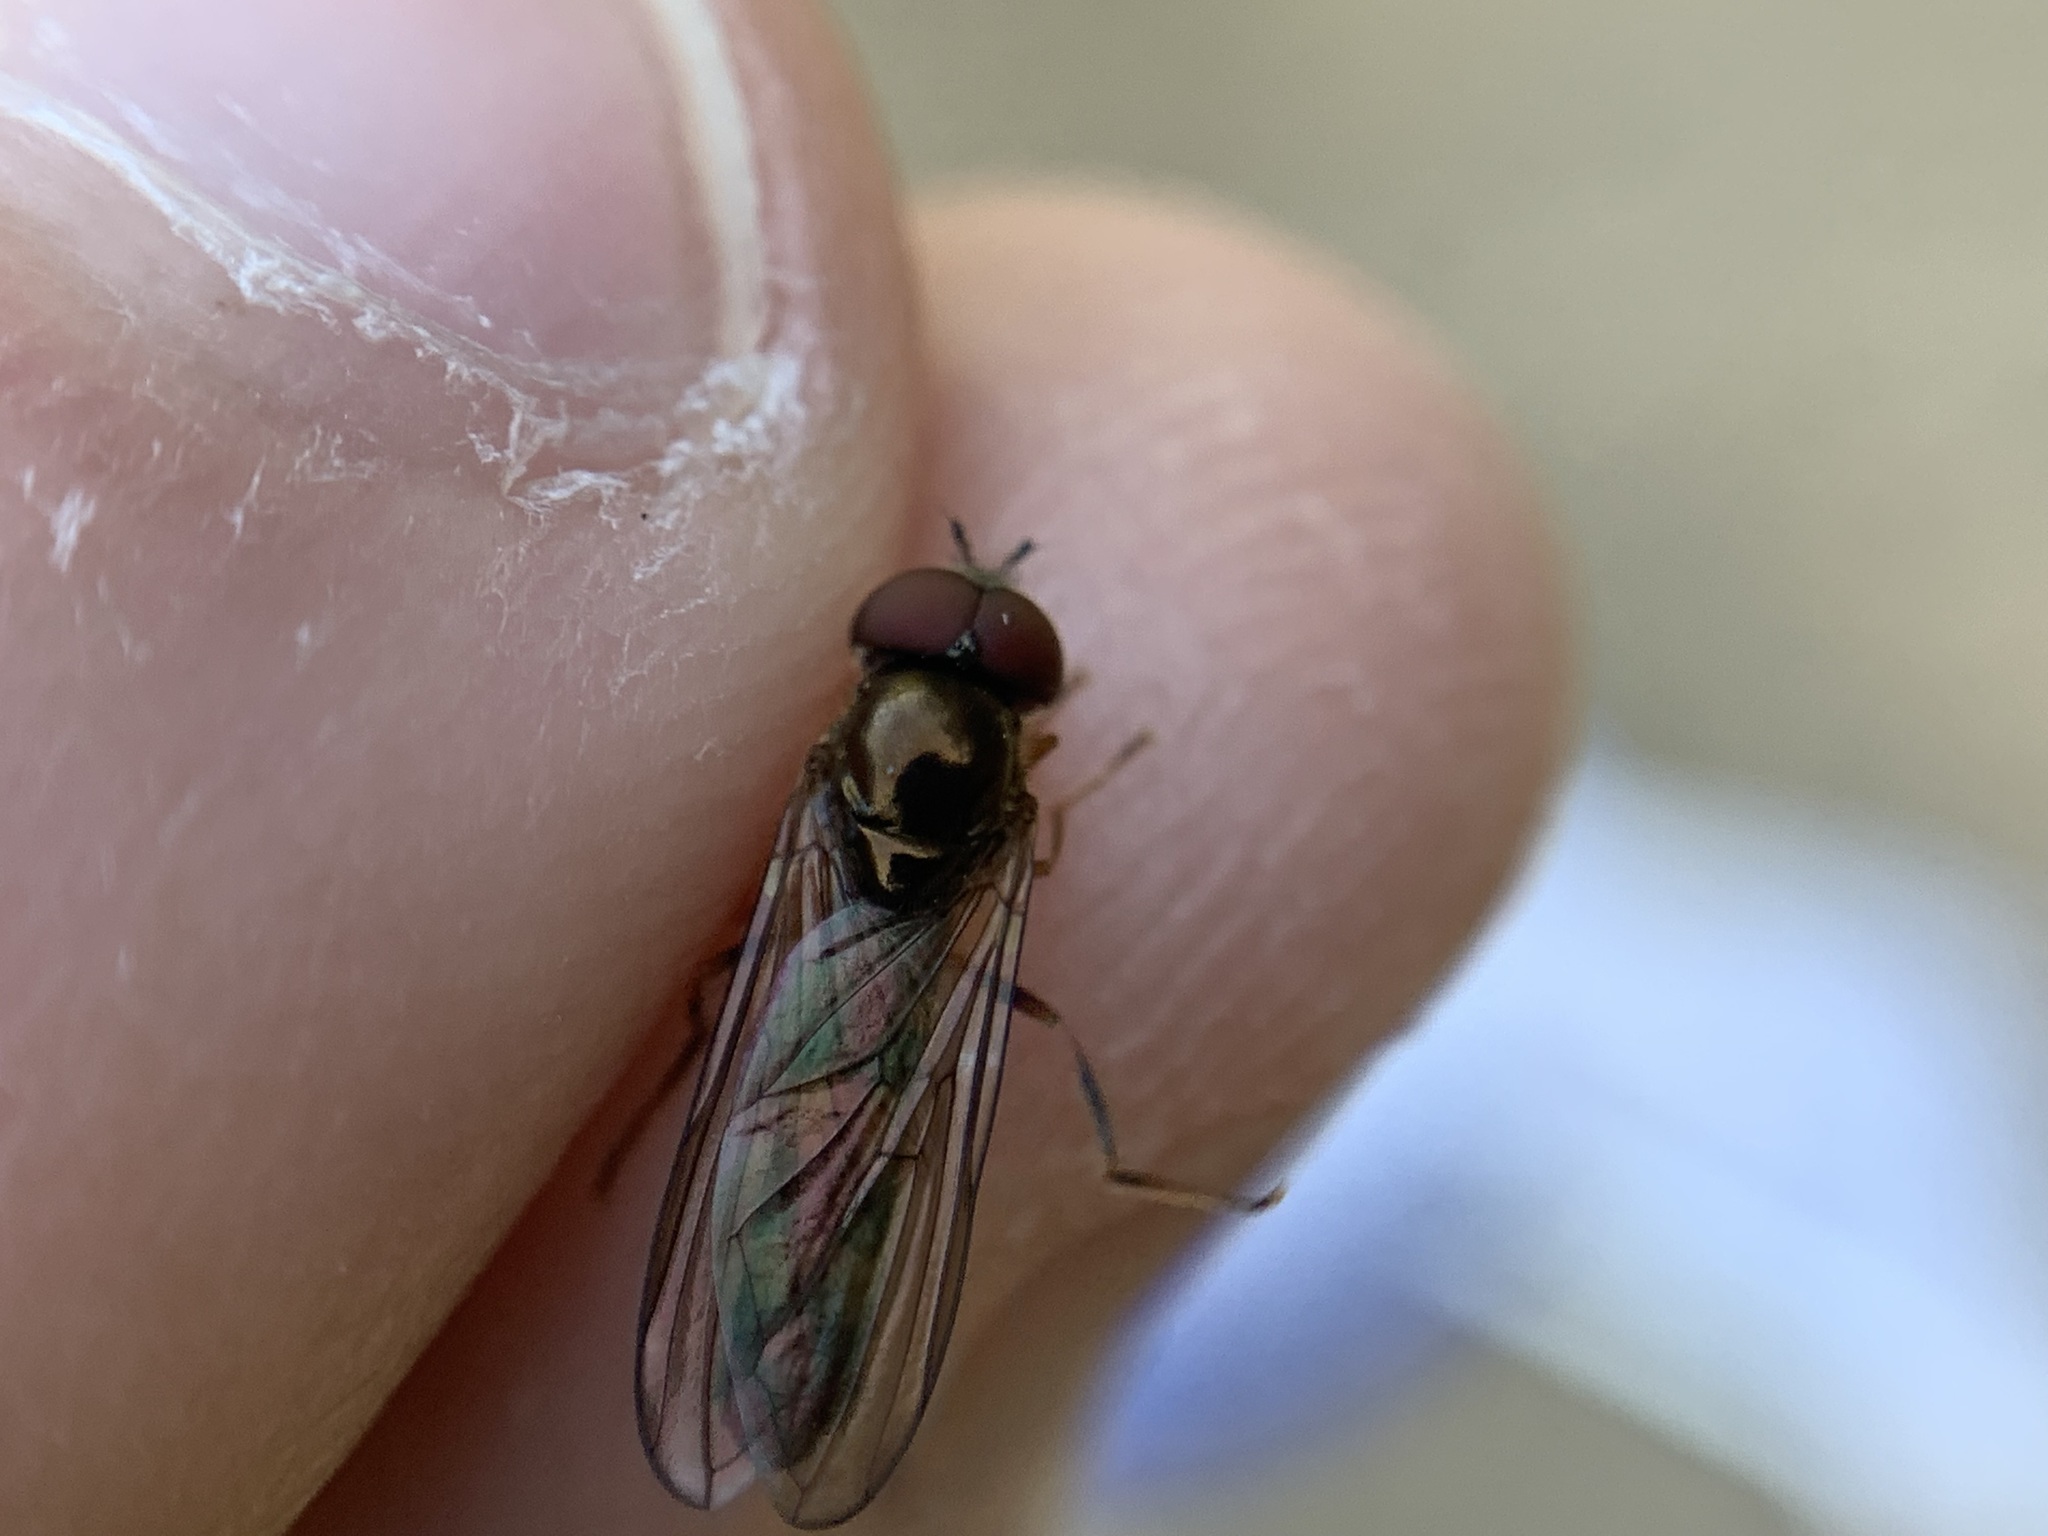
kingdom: Animalia
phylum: Arthropoda
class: Insecta
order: Diptera
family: Syrphidae
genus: Melanostoma
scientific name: Melanostoma mellina
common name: Hover fly
